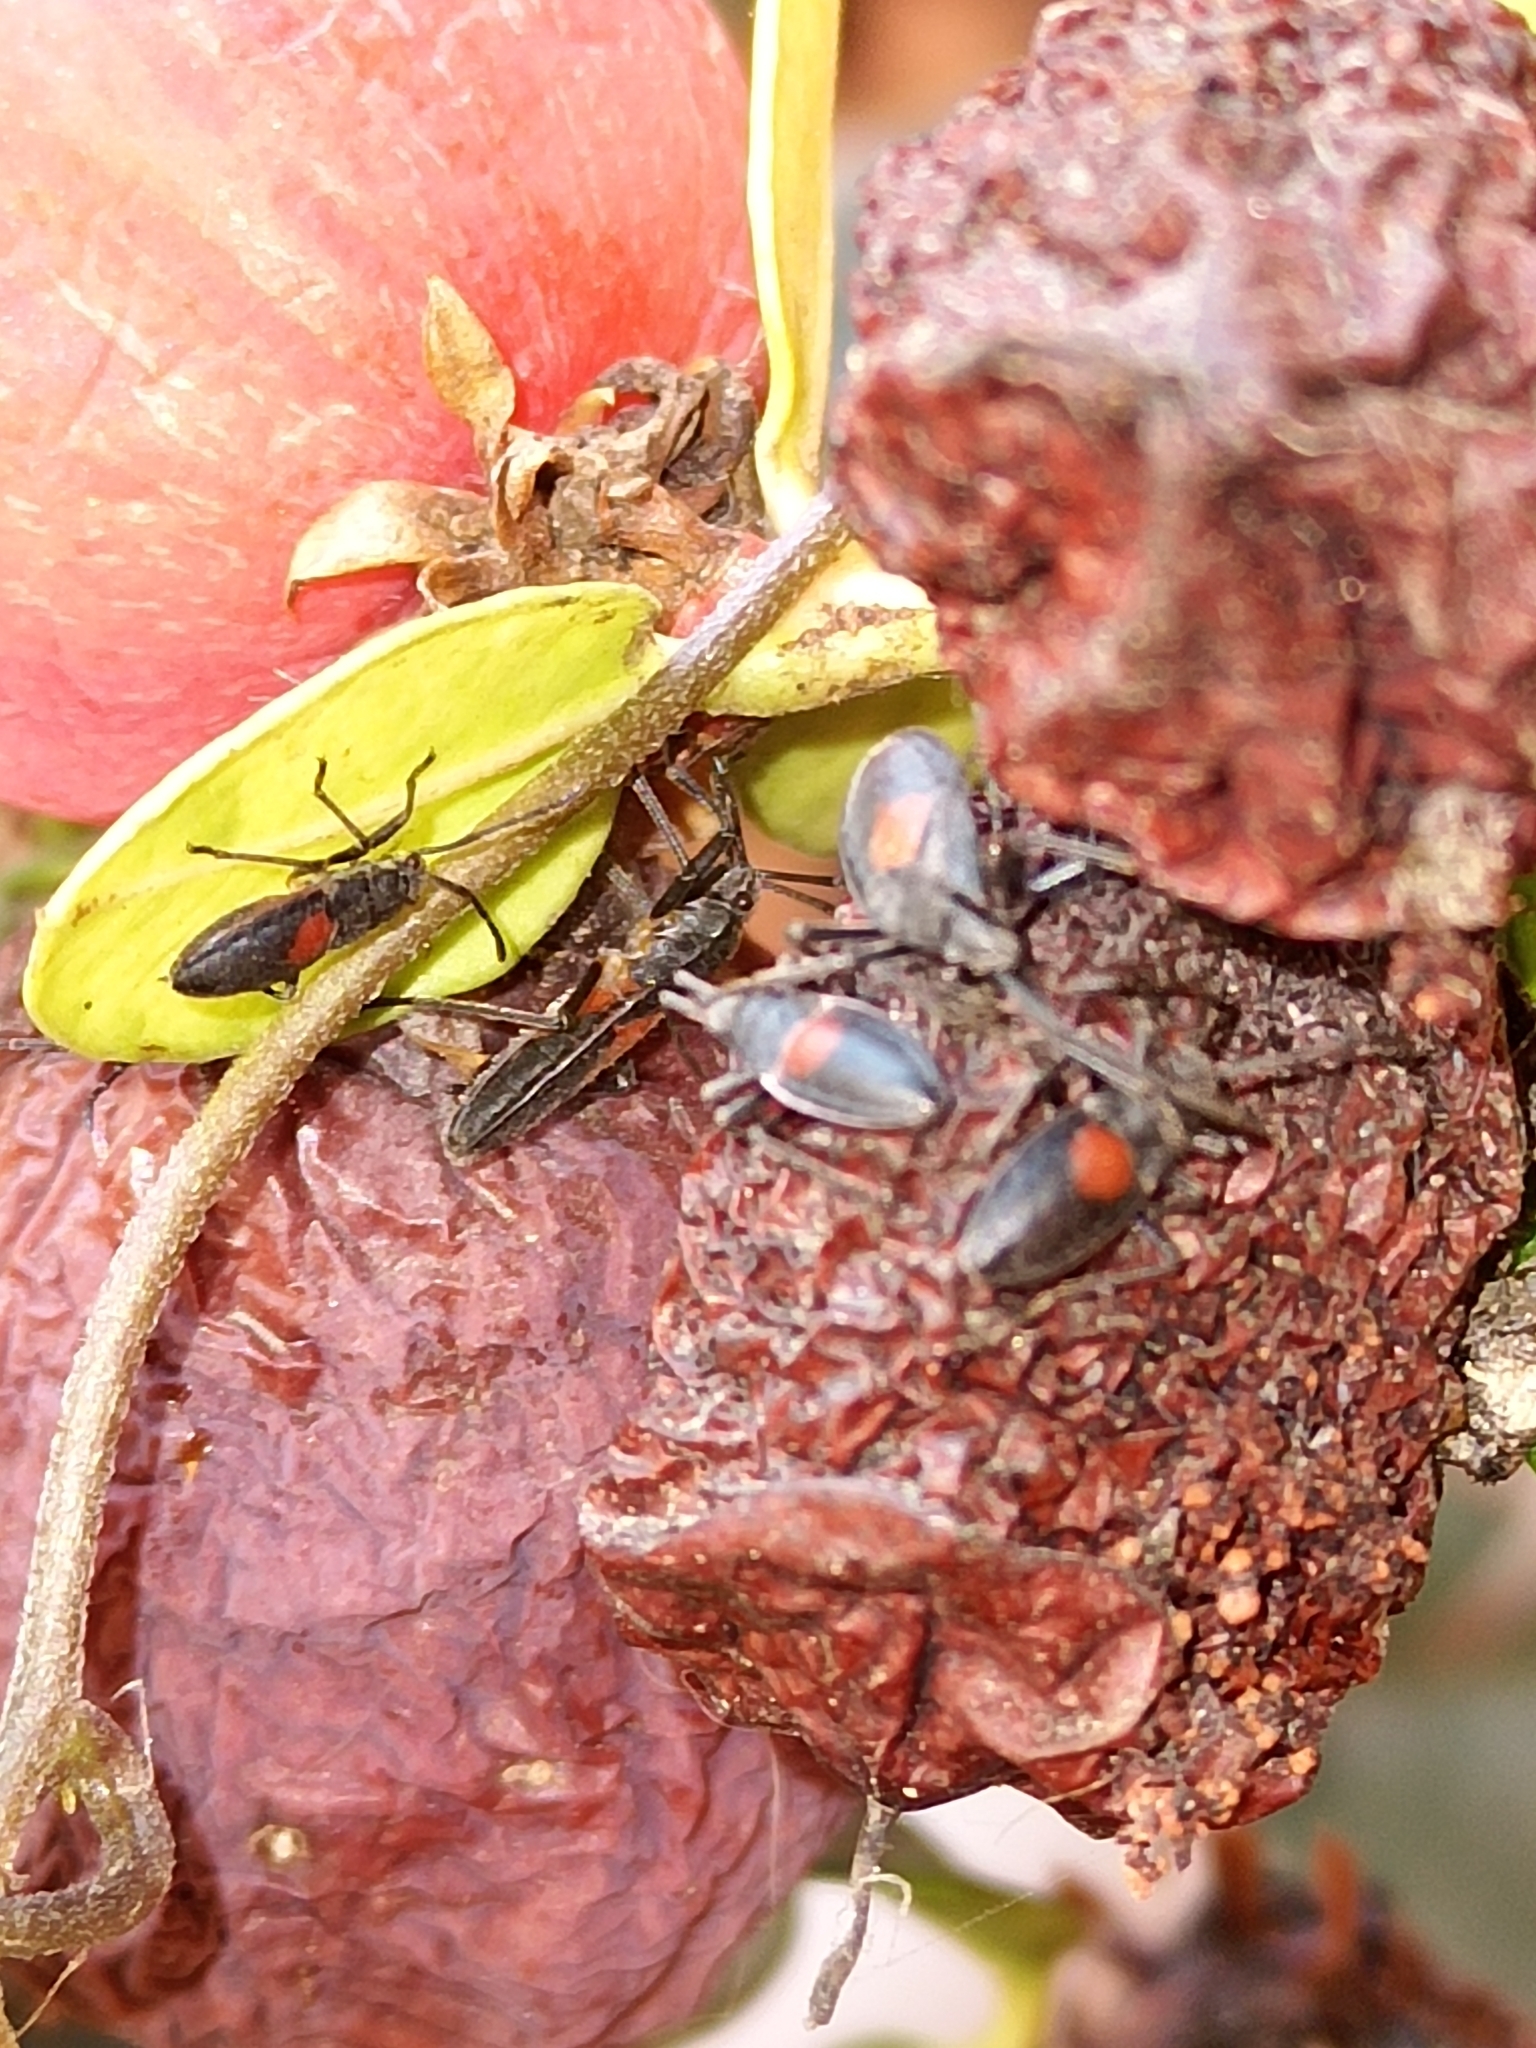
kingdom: Animalia
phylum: Arthropoda
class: Insecta
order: Hemiptera
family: Largidae
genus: Stenomacra
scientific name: Stenomacra marginella
